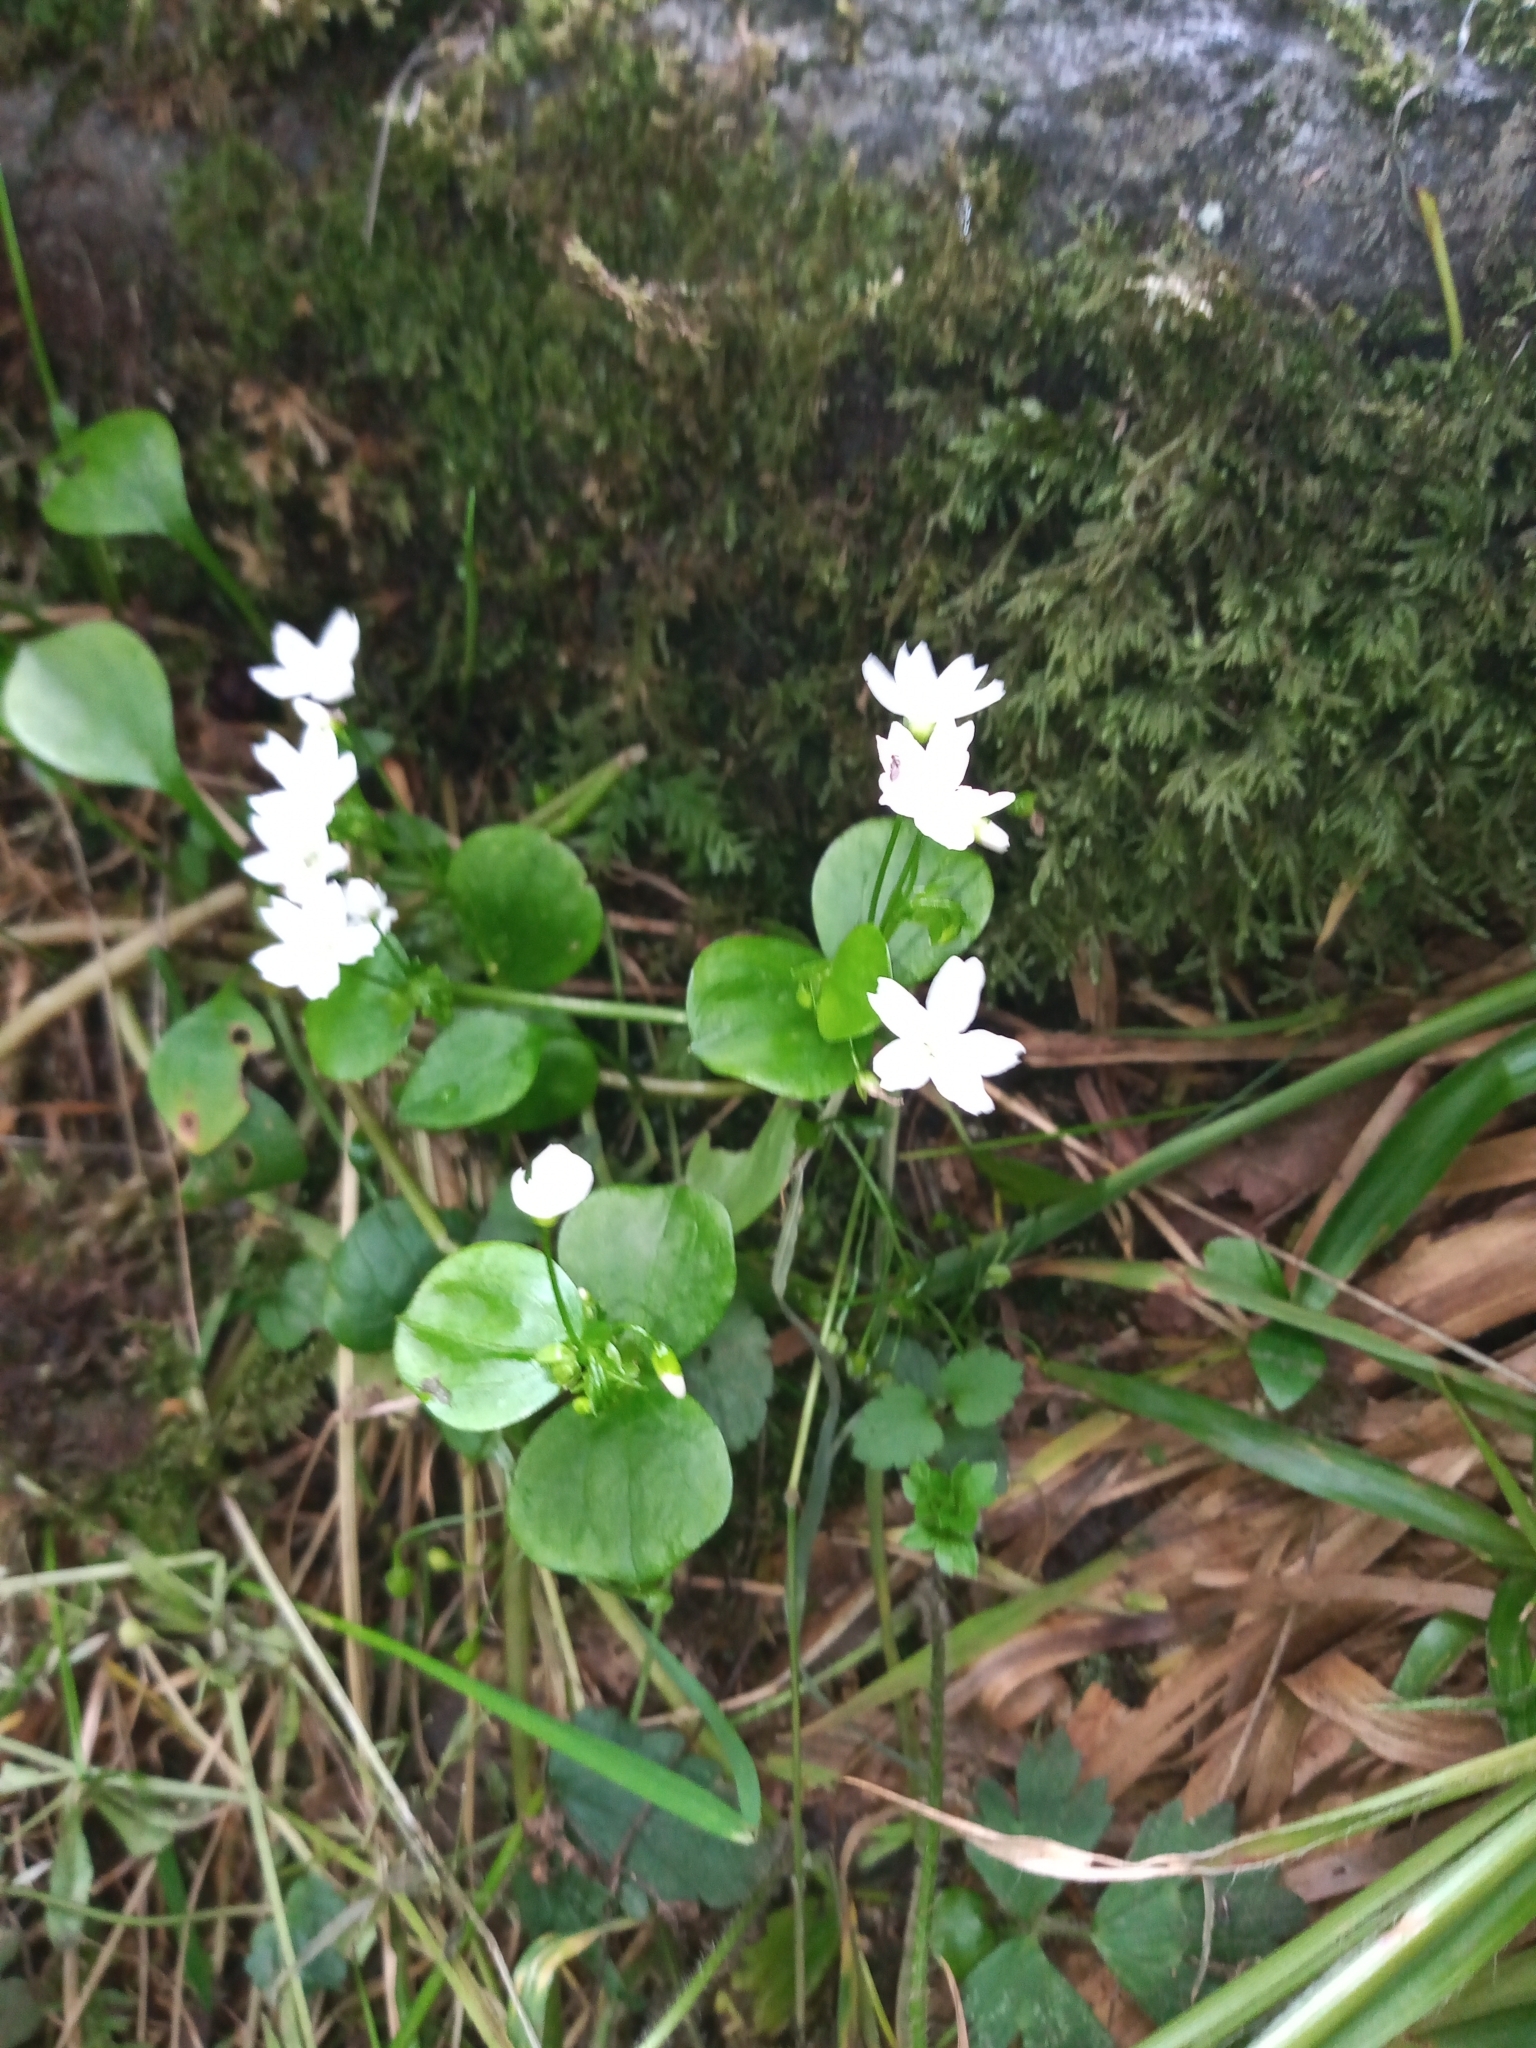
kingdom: Plantae
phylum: Tracheophyta
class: Magnoliopsida
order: Caryophyllales
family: Montiaceae
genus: Claytonia
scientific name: Claytonia sibirica
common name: Pink purslane
